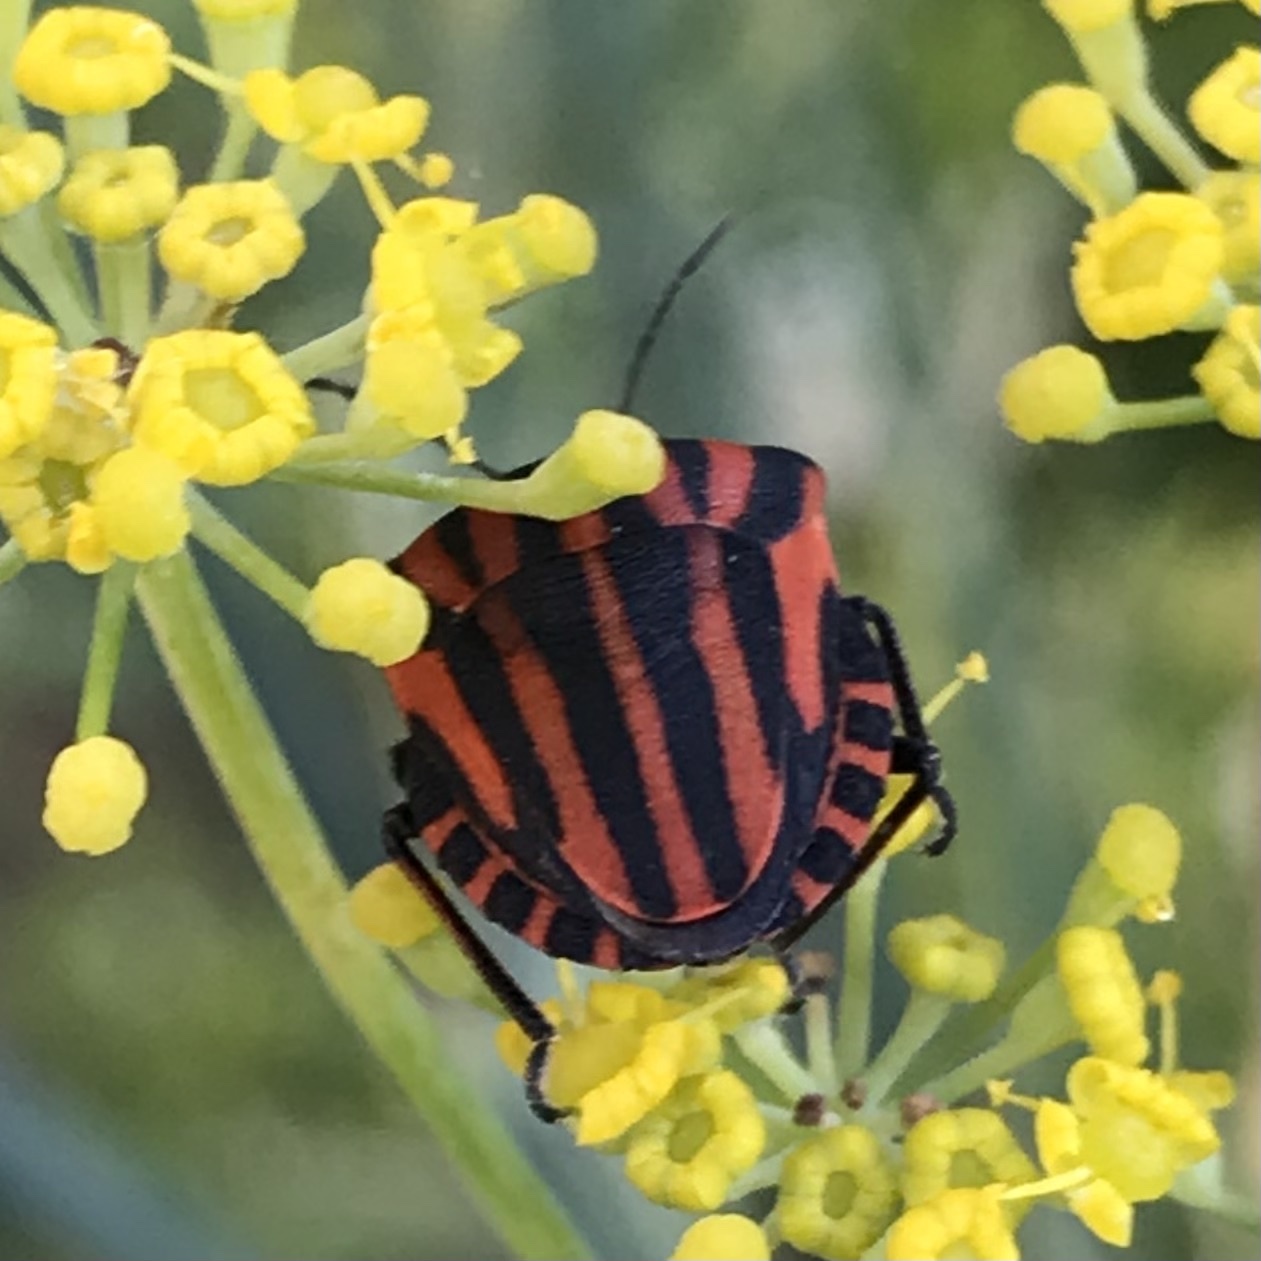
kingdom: Animalia
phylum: Arthropoda
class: Insecta
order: Hemiptera
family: Pentatomidae
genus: Graphosoma
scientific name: Graphosoma italicum
